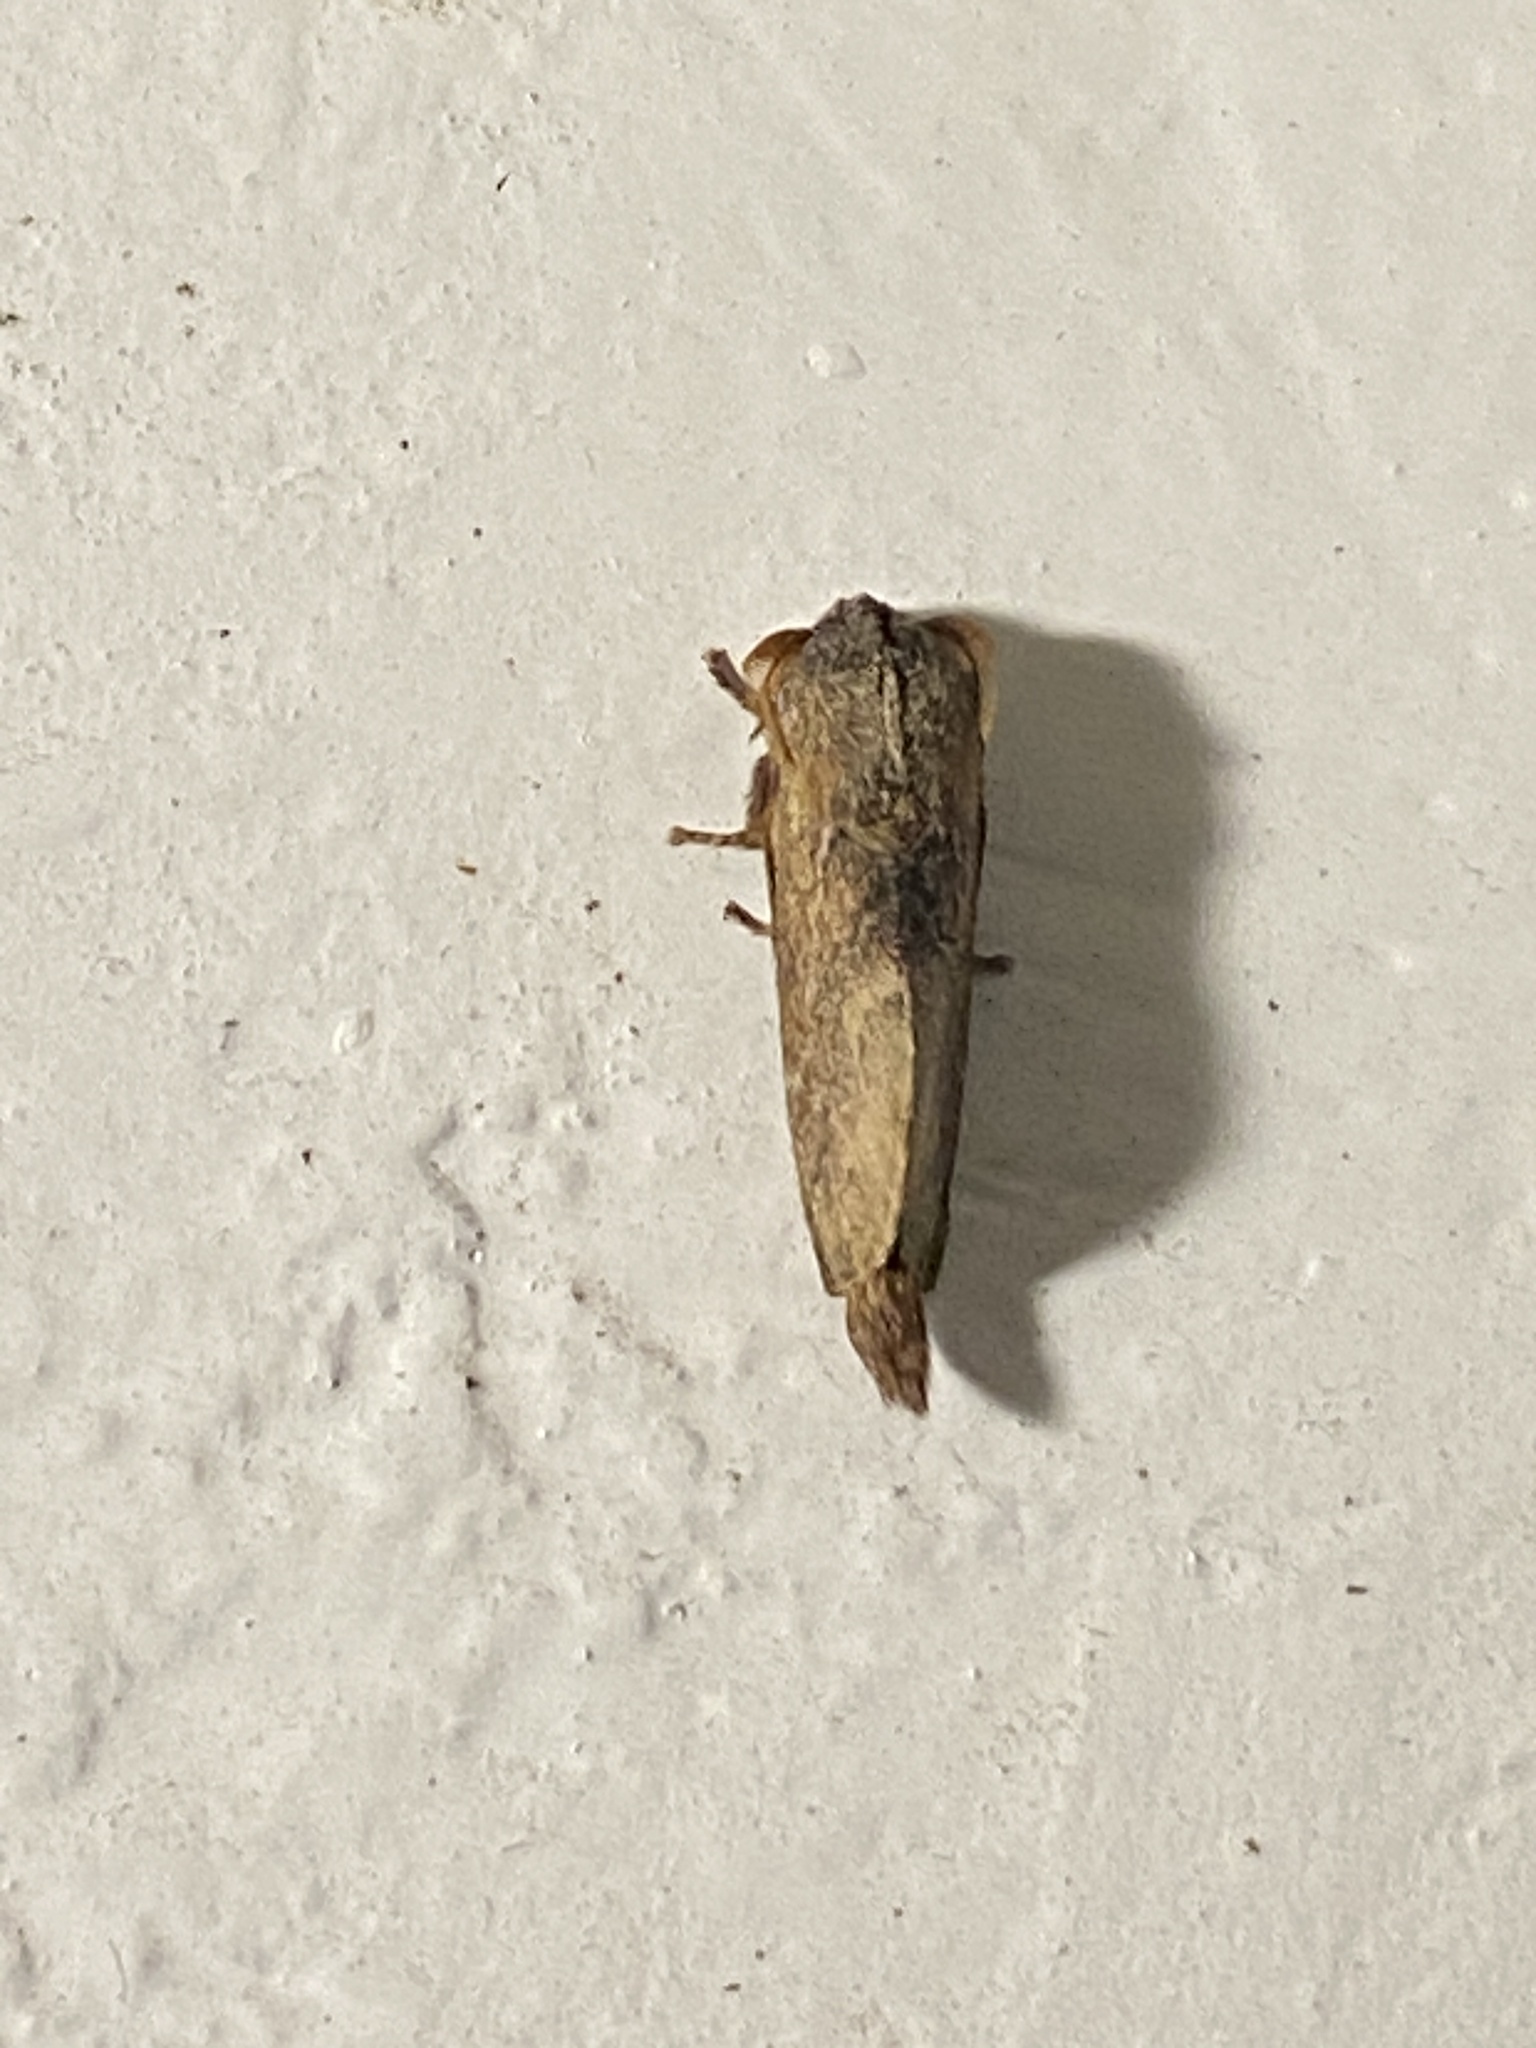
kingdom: Animalia
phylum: Arthropoda
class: Insecta
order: Lepidoptera
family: Lasiocampidae
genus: Eutricha
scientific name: Eutricha capensis
